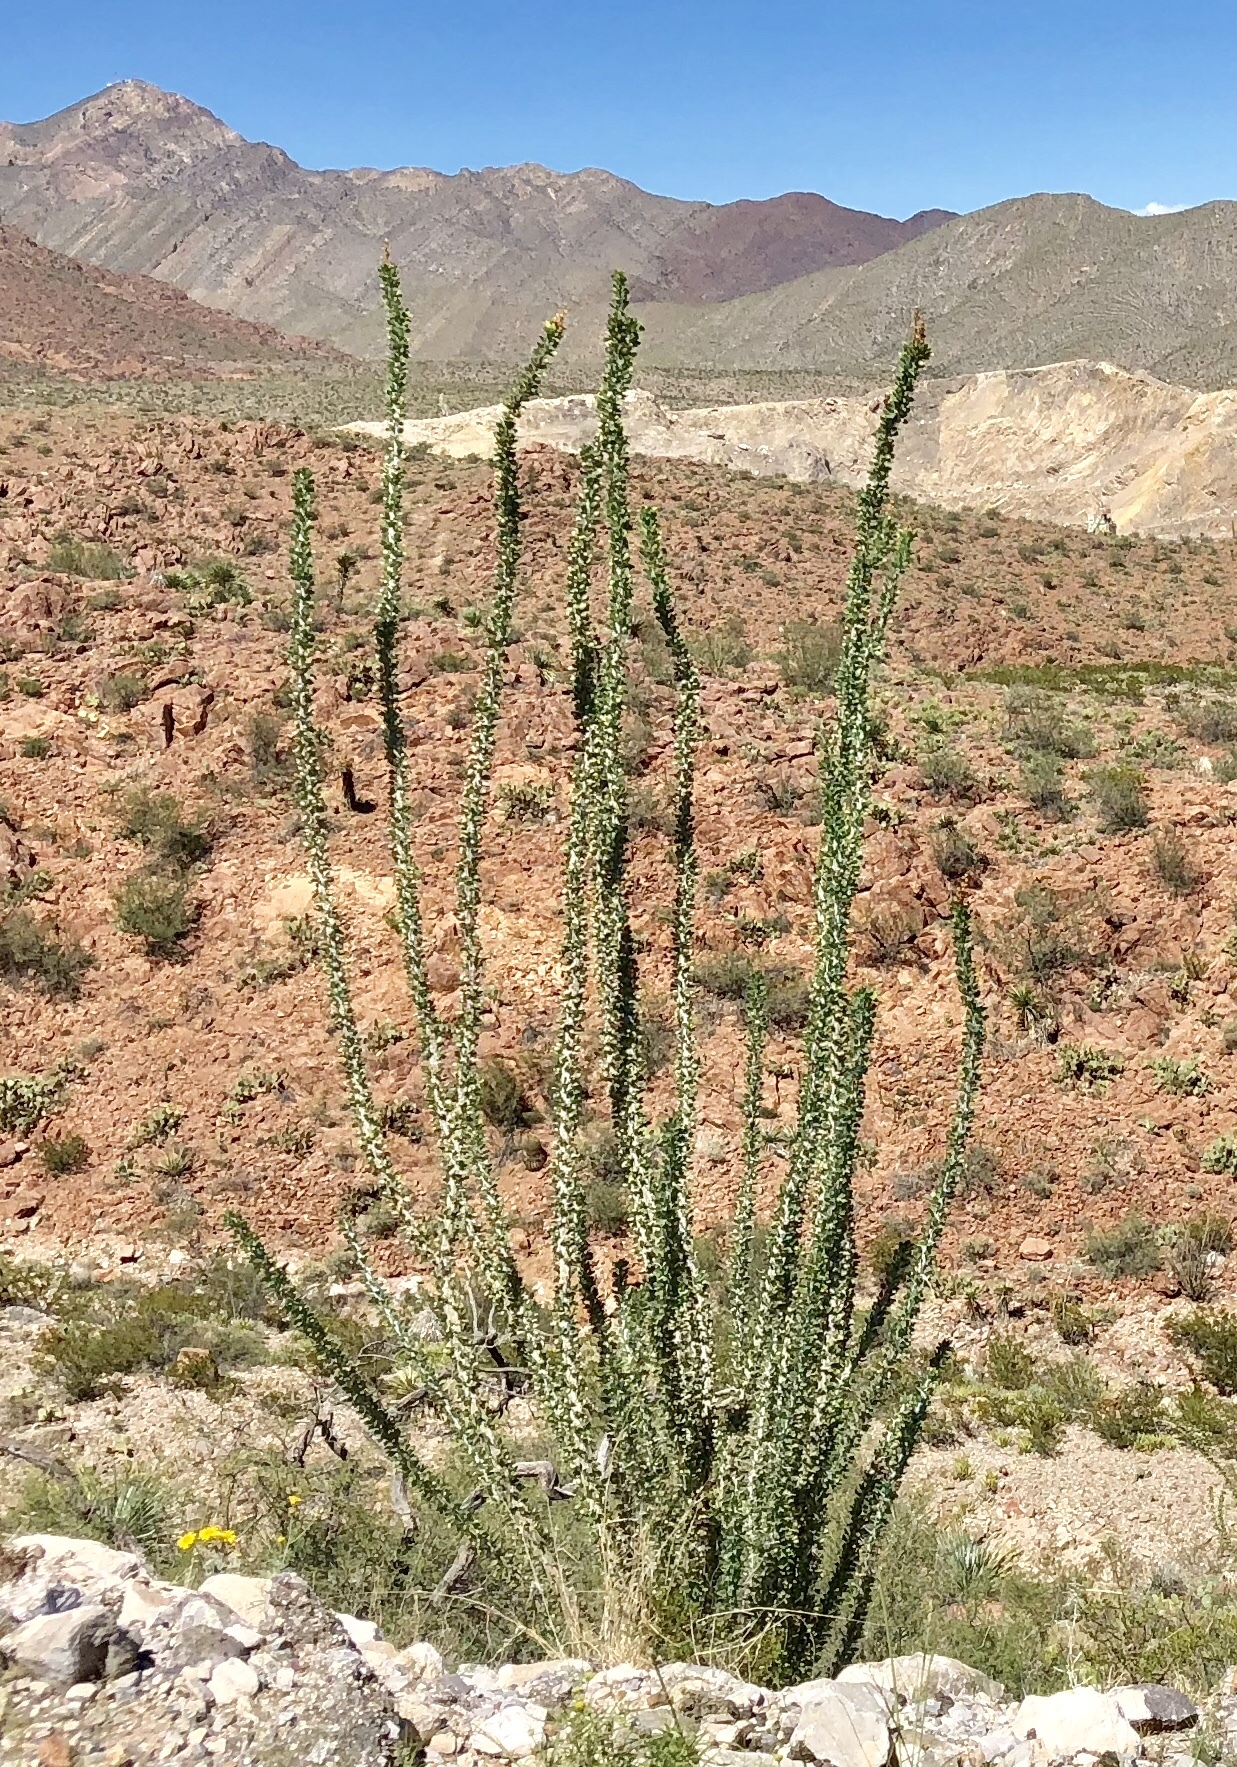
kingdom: Plantae
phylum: Tracheophyta
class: Magnoliopsida
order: Ericales
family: Fouquieriaceae
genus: Fouquieria
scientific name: Fouquieria splendens
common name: Vine-cactus
